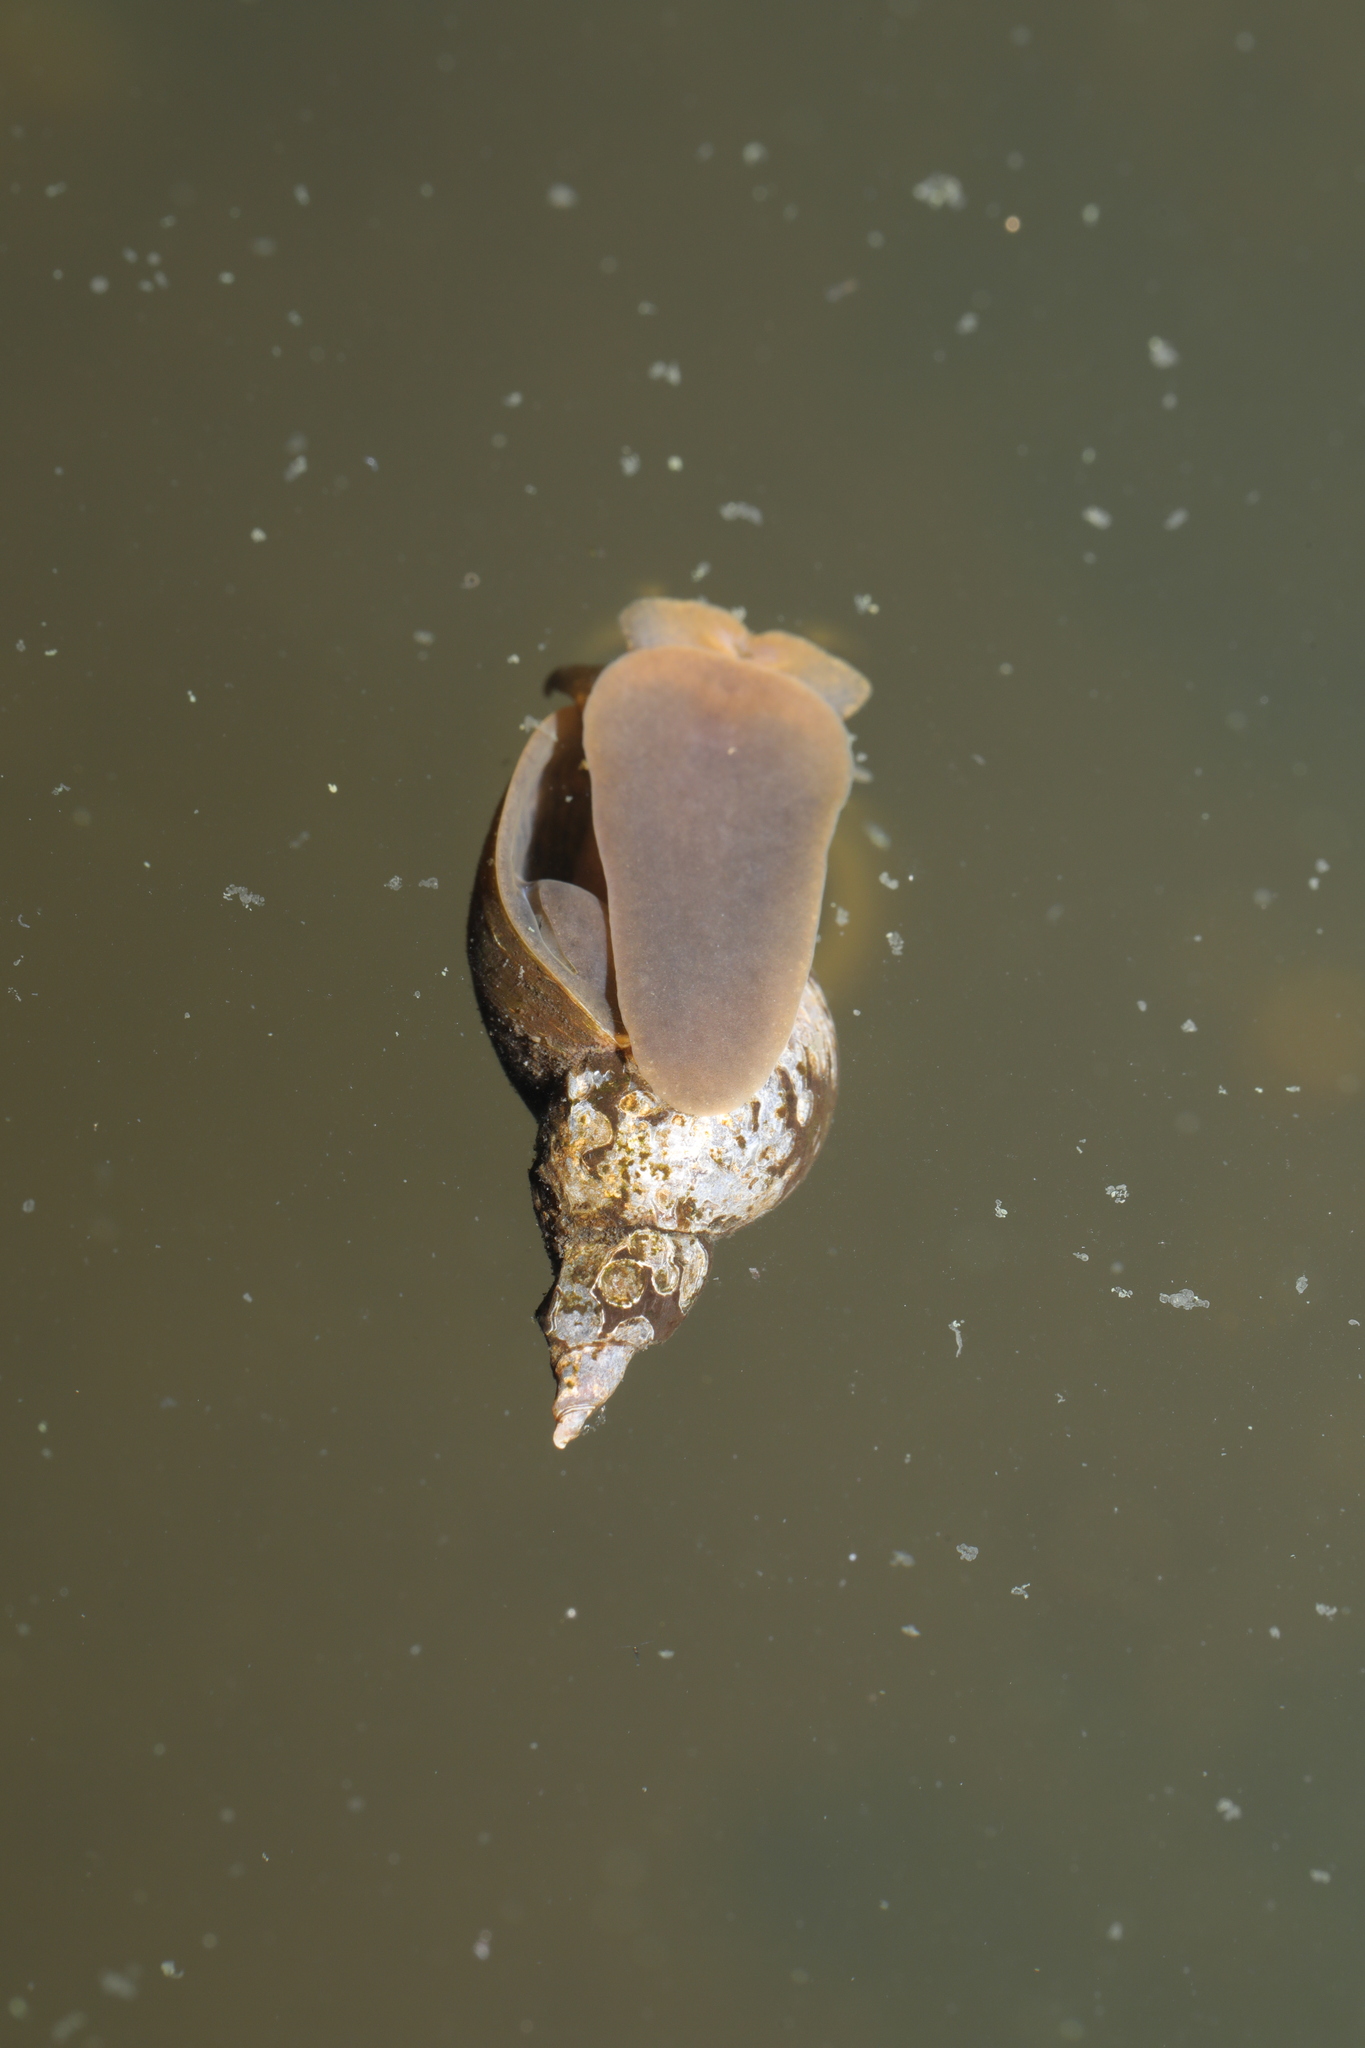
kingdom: Animalia
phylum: Mollusca
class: Gastropoda
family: Lymnaeidae
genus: Lymnaea
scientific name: Lymnaea stagnalis
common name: Great pond snail
